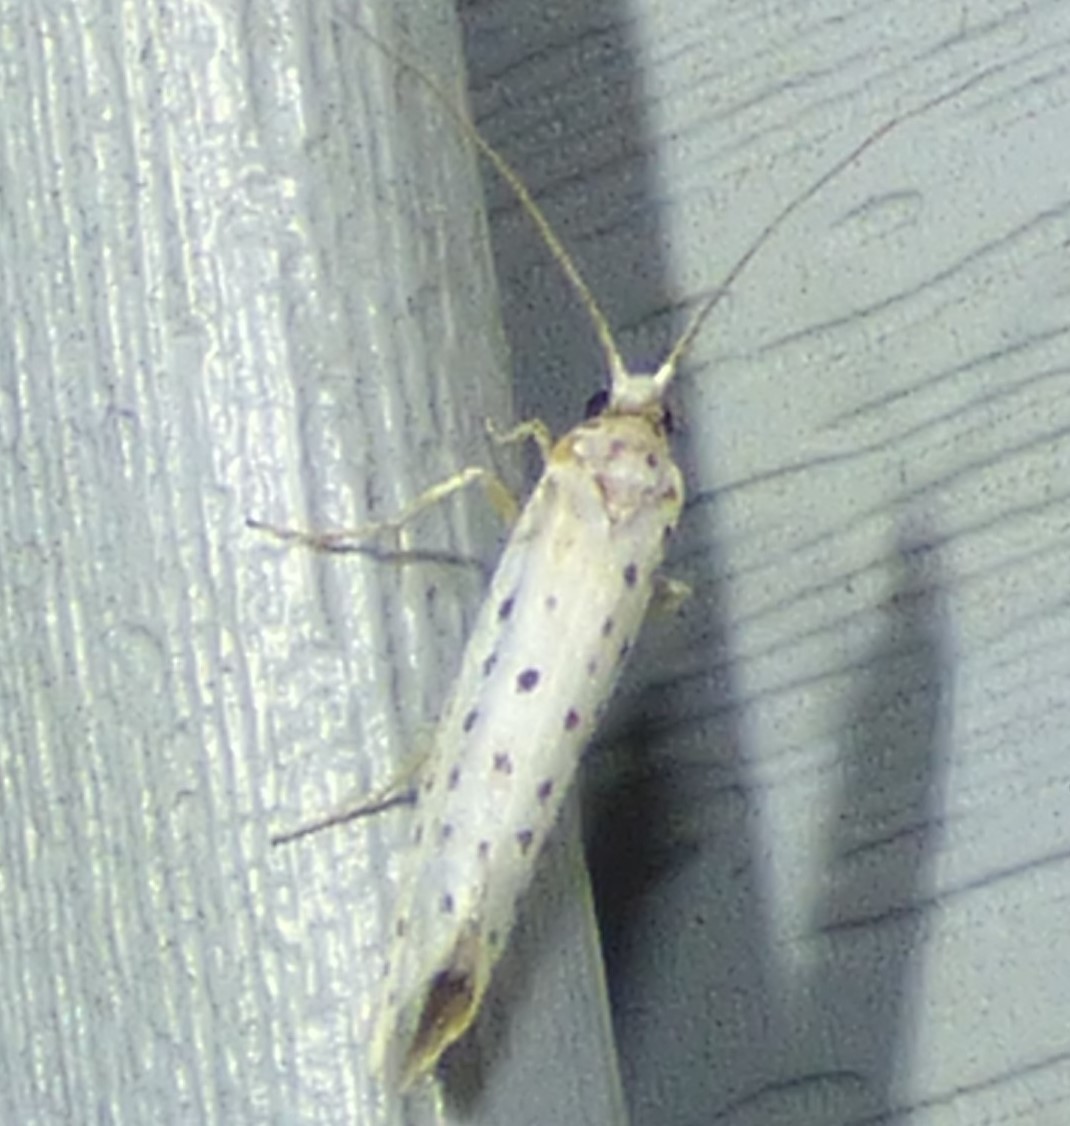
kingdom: Animalia
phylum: Arthropoda
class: Insecta
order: Lepidoptera
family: Yponomeutidae
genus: Yponomeuta
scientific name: Yponomeuta multipunctella
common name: American ermine moth
